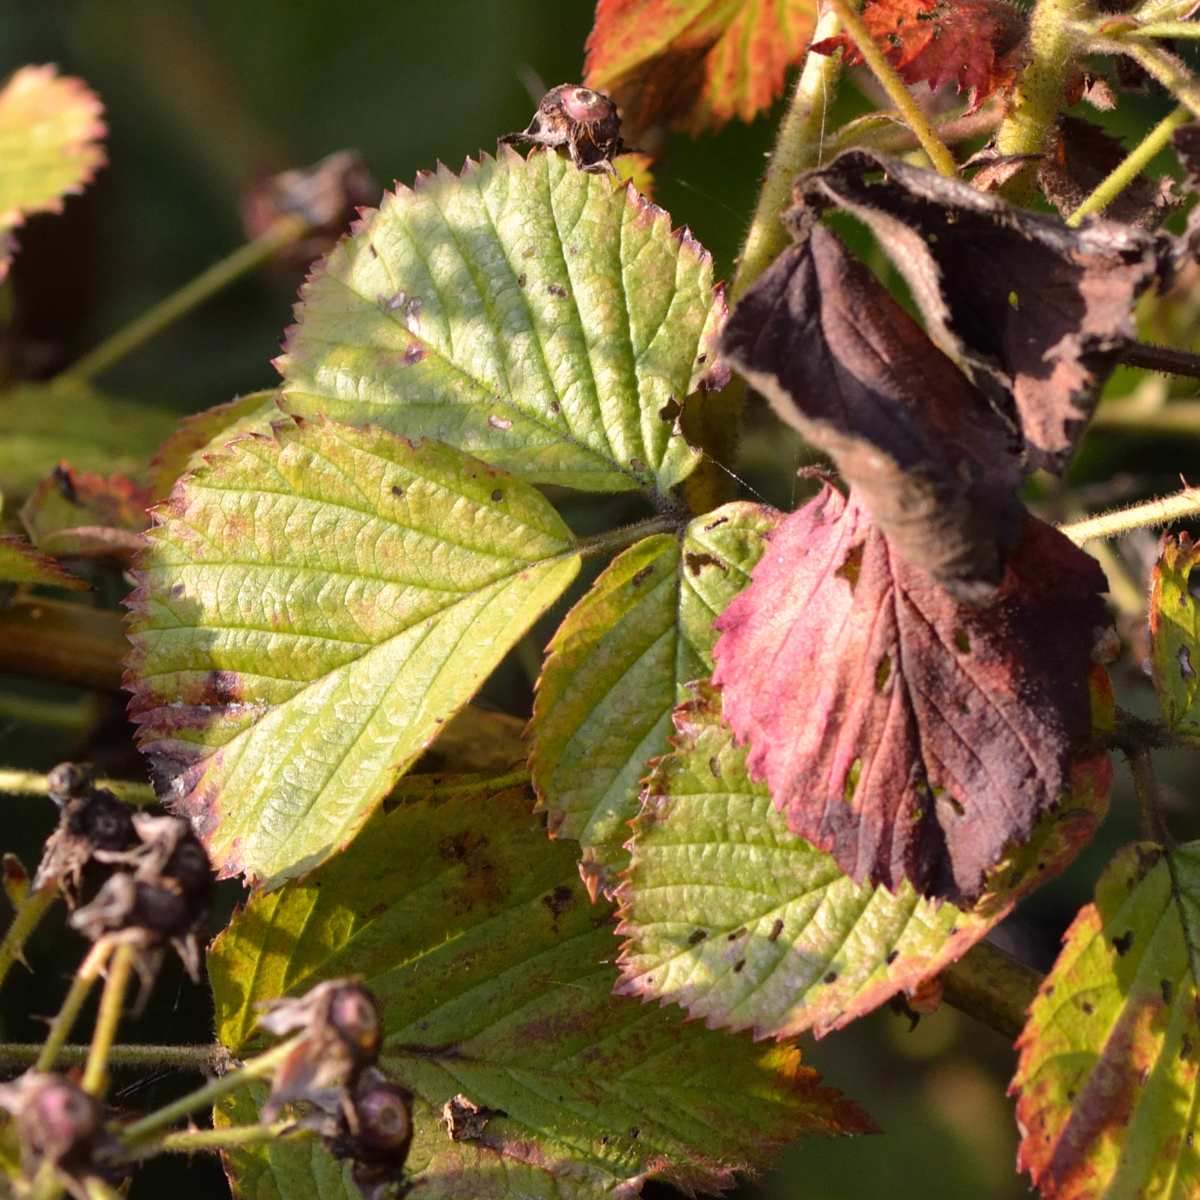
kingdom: Plantae
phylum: Tracheophyta
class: Magnoliopsida
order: Rosales
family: Rosaceae
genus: Rubus
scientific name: Rubus allegheniensis
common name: Allegheny blackberry
